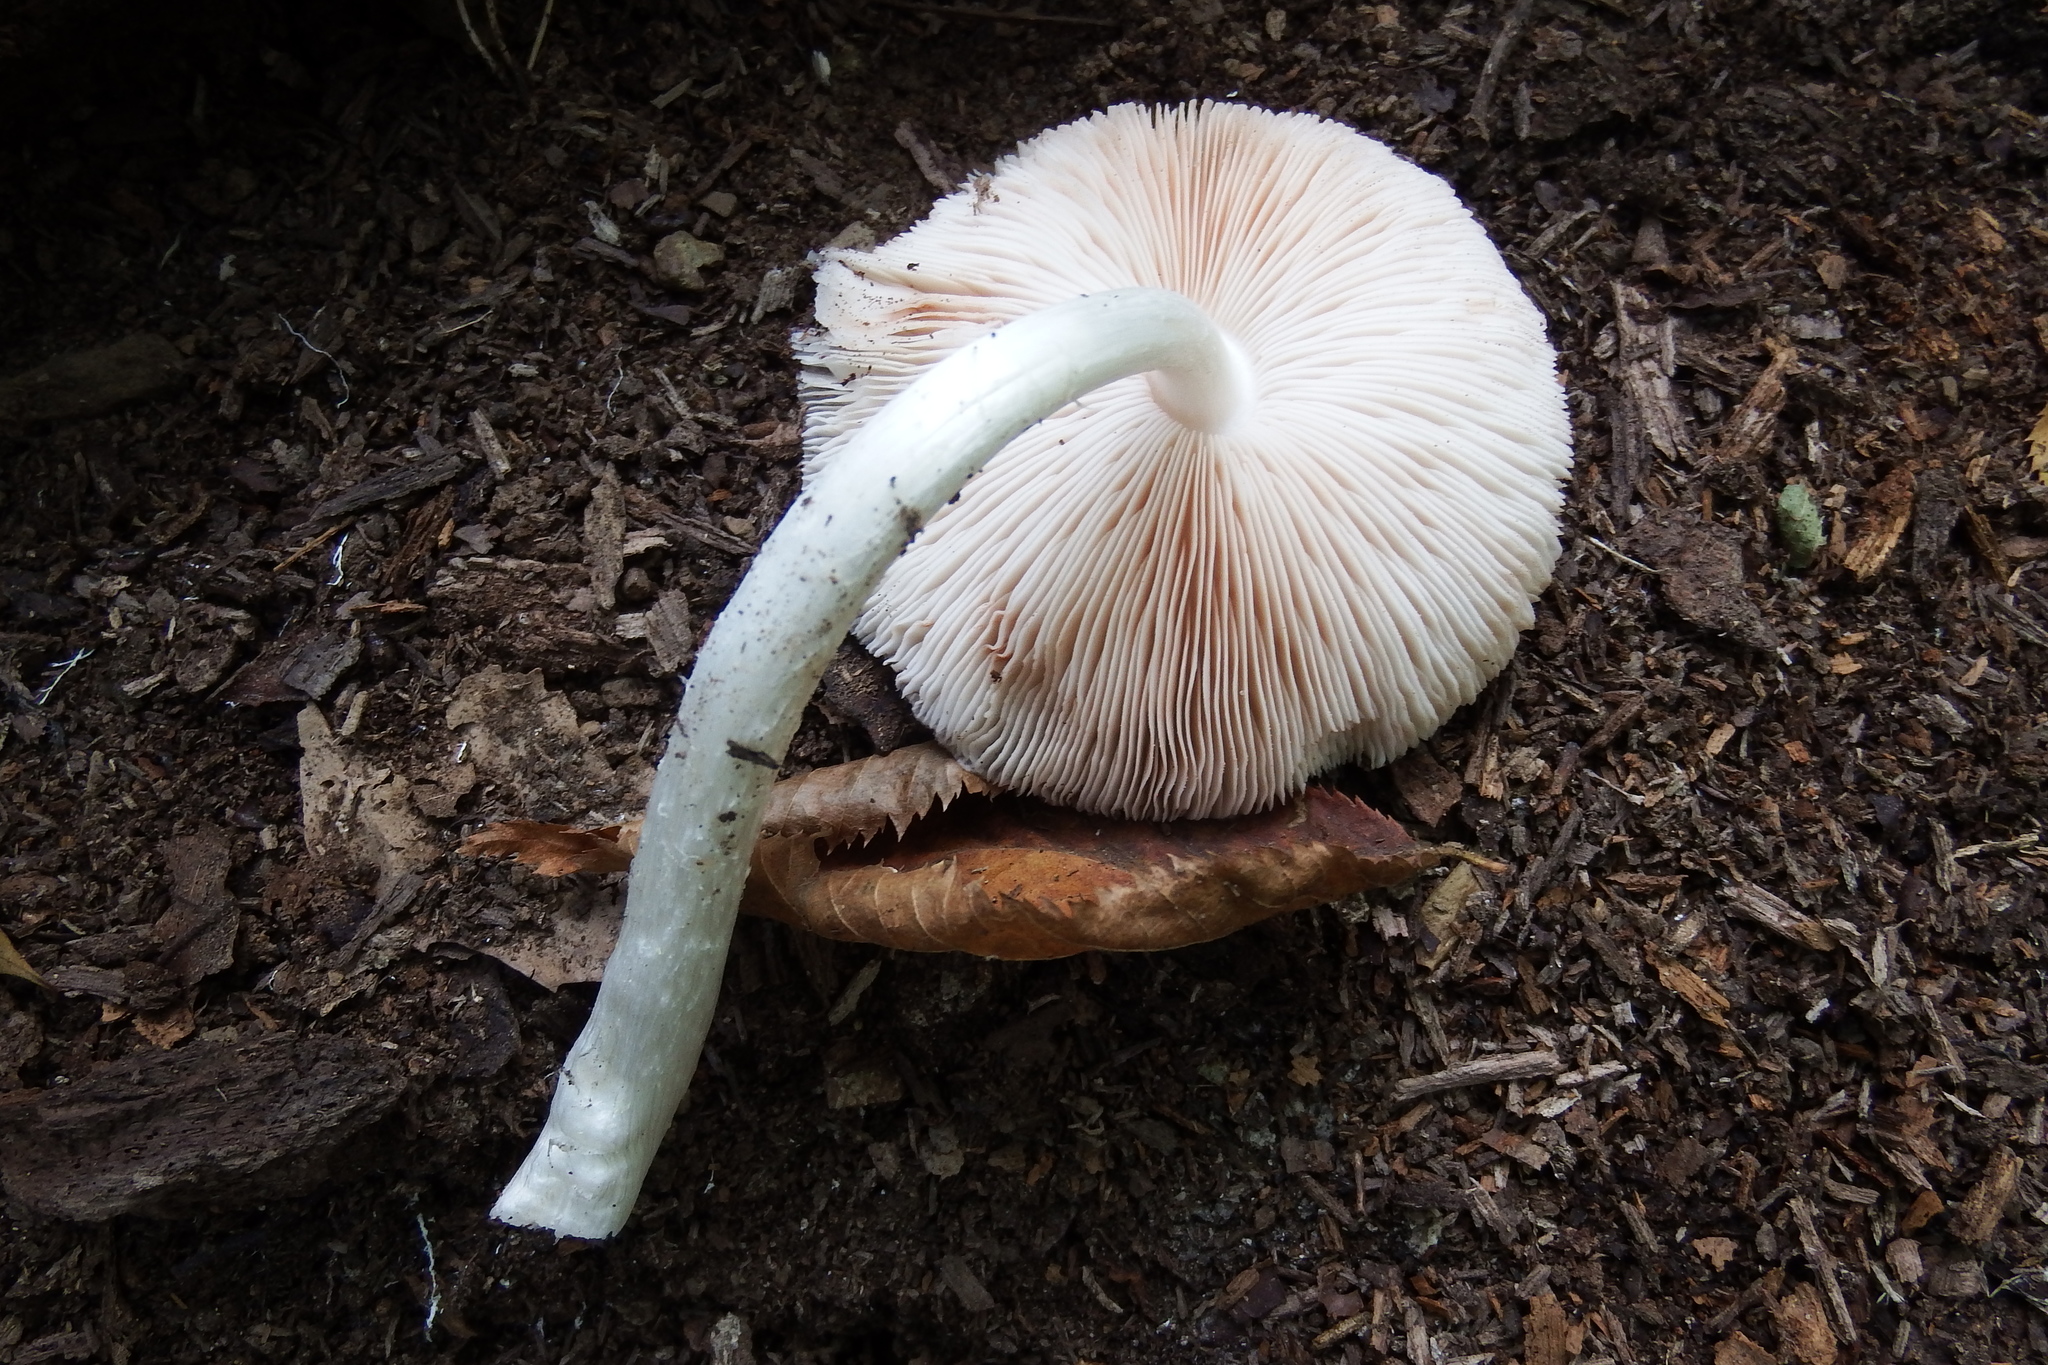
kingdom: Fungi
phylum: Basidiomycota
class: Agaricomycetes
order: Agaricales
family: Pluteaceae
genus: Pluteus
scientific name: Pluteus cervinus
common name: Deer shield
